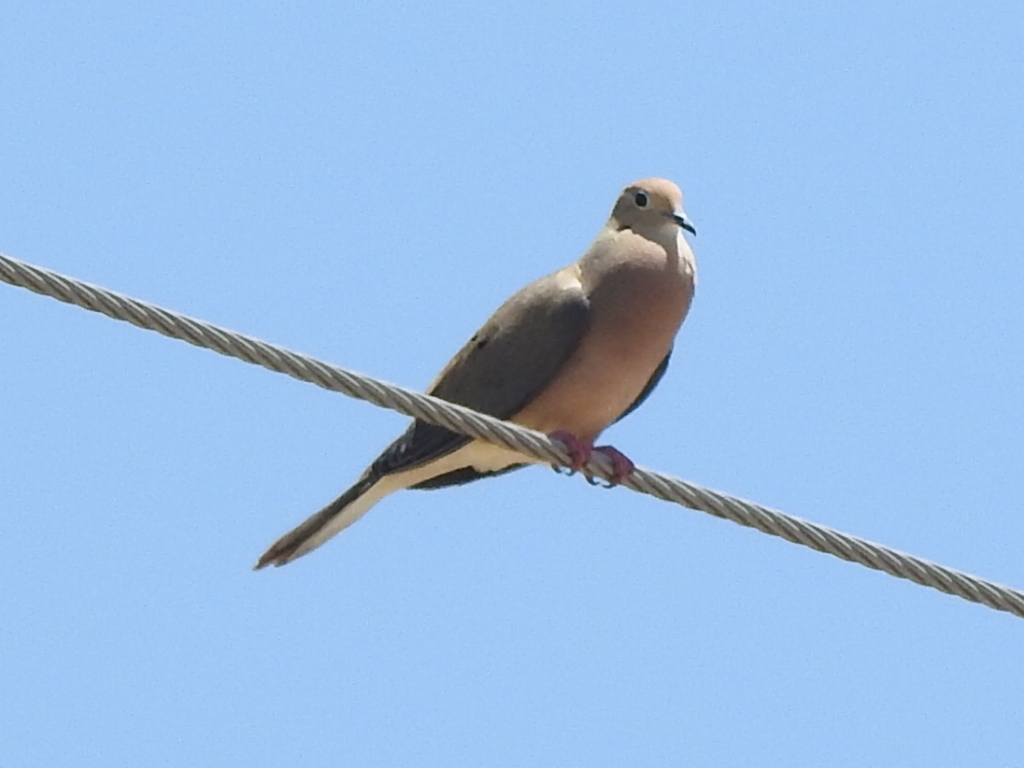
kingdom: Animalia
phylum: Chordata
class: Aves
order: Columbiformes
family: Columbidae
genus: Zenaida
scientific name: Zenaida macroura
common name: Mourning dove
